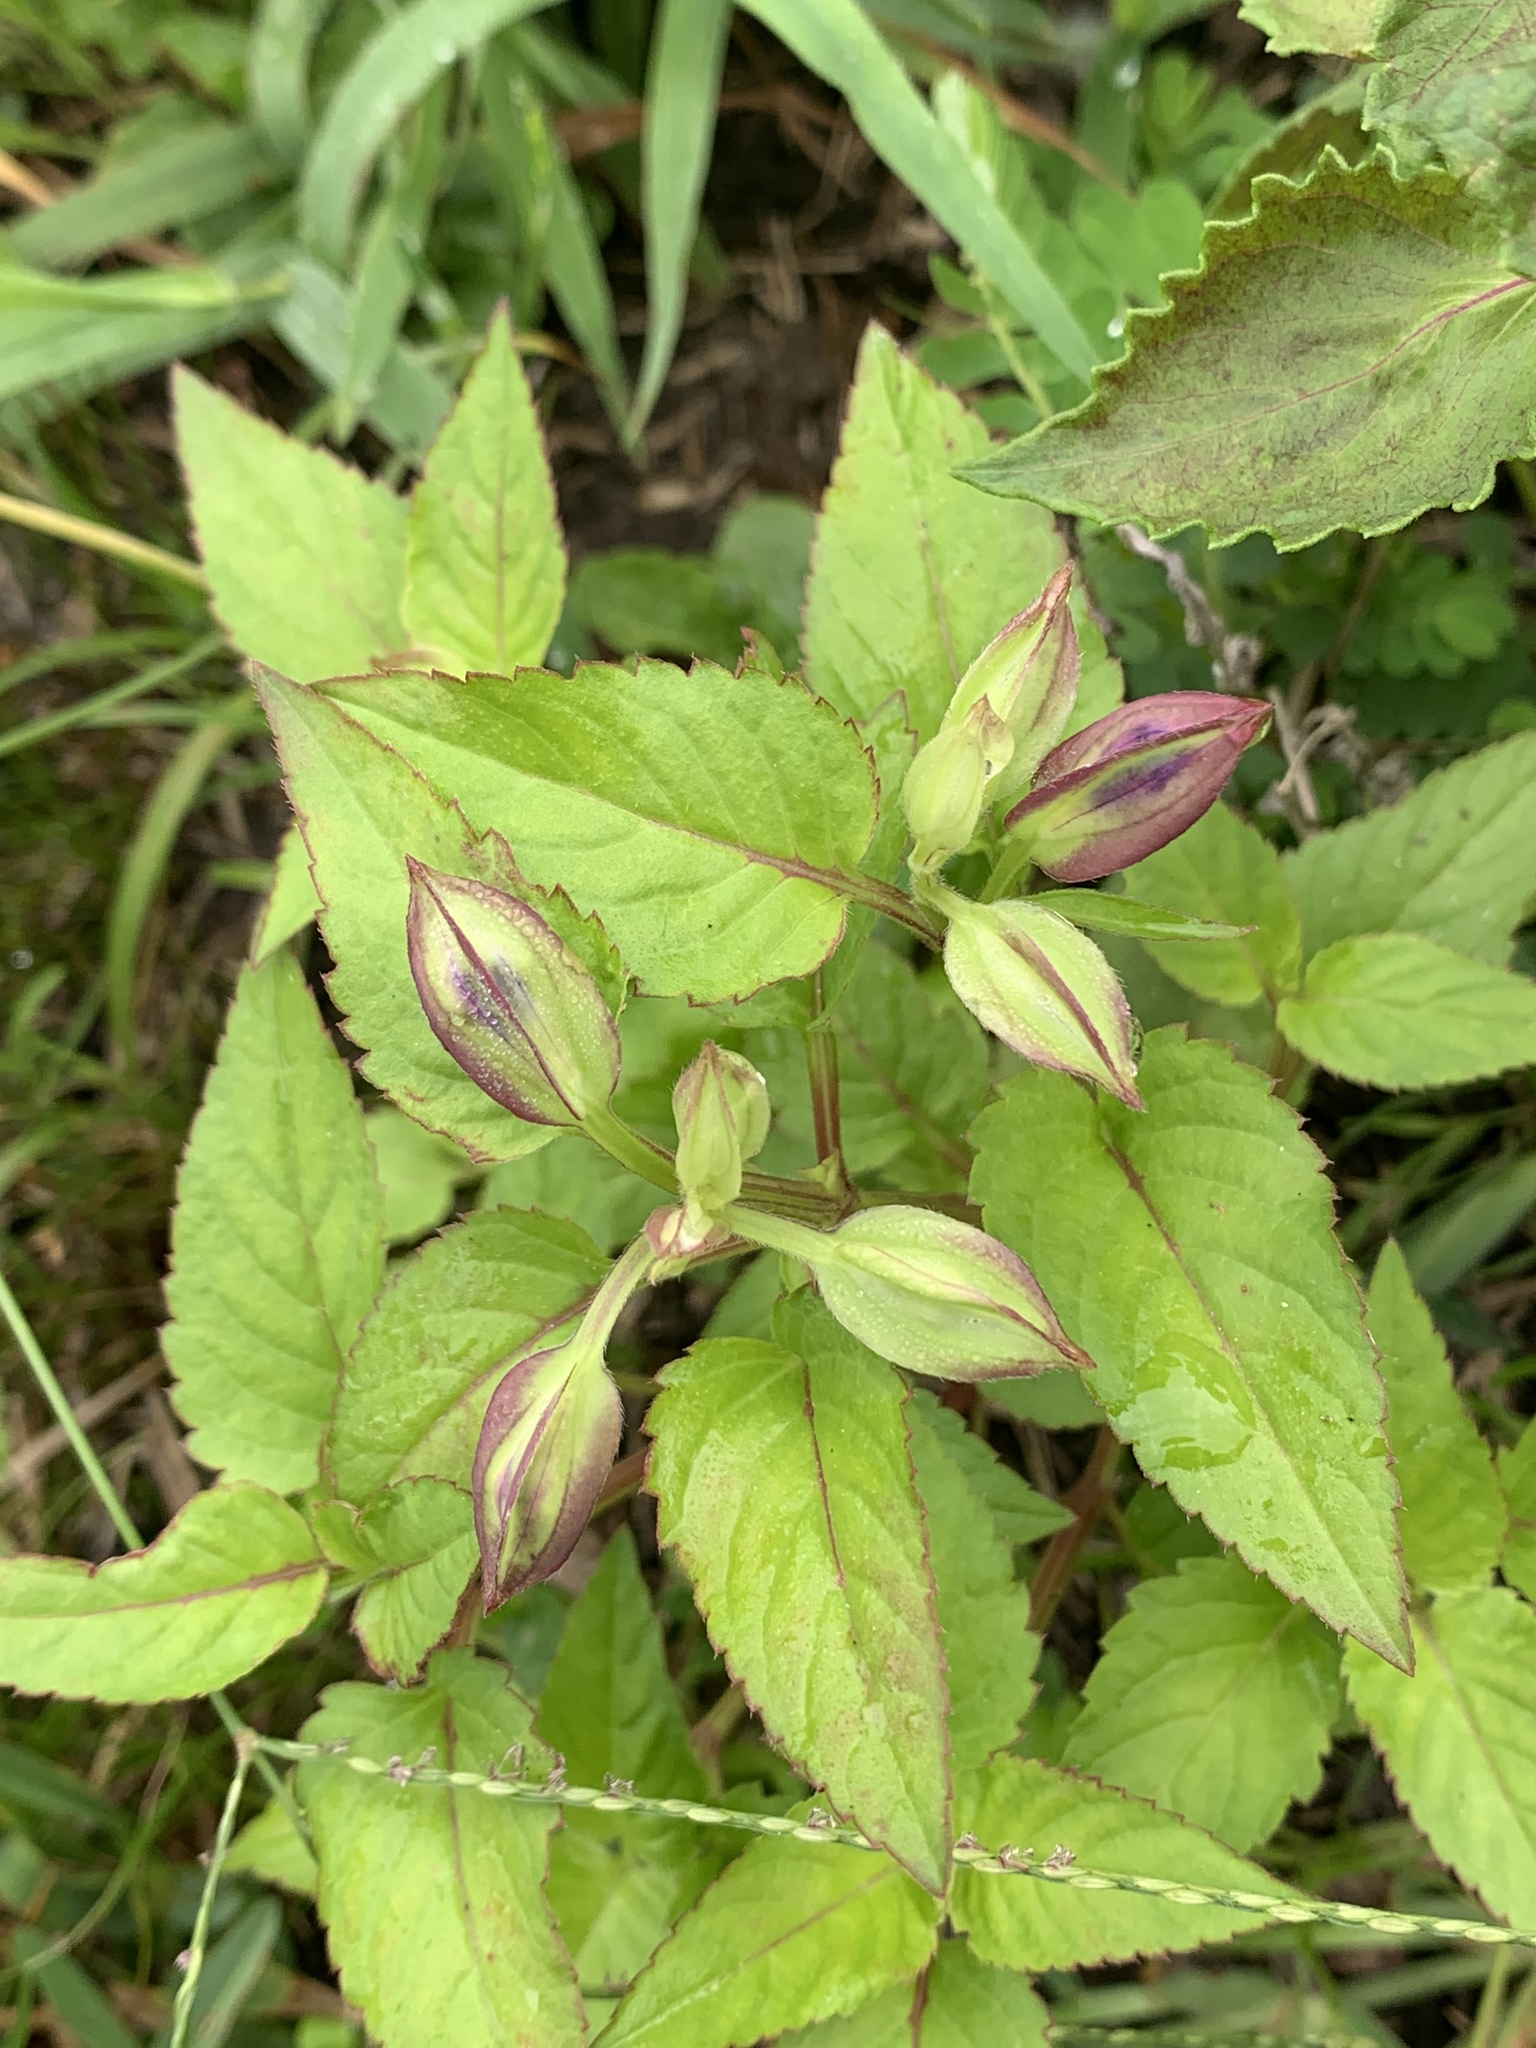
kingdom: Plantae
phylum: Tracheophyta
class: Magnoliopsida
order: Lamiales
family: Linderniaceae
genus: Torenia
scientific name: Torenia fournieri
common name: Bluewings
